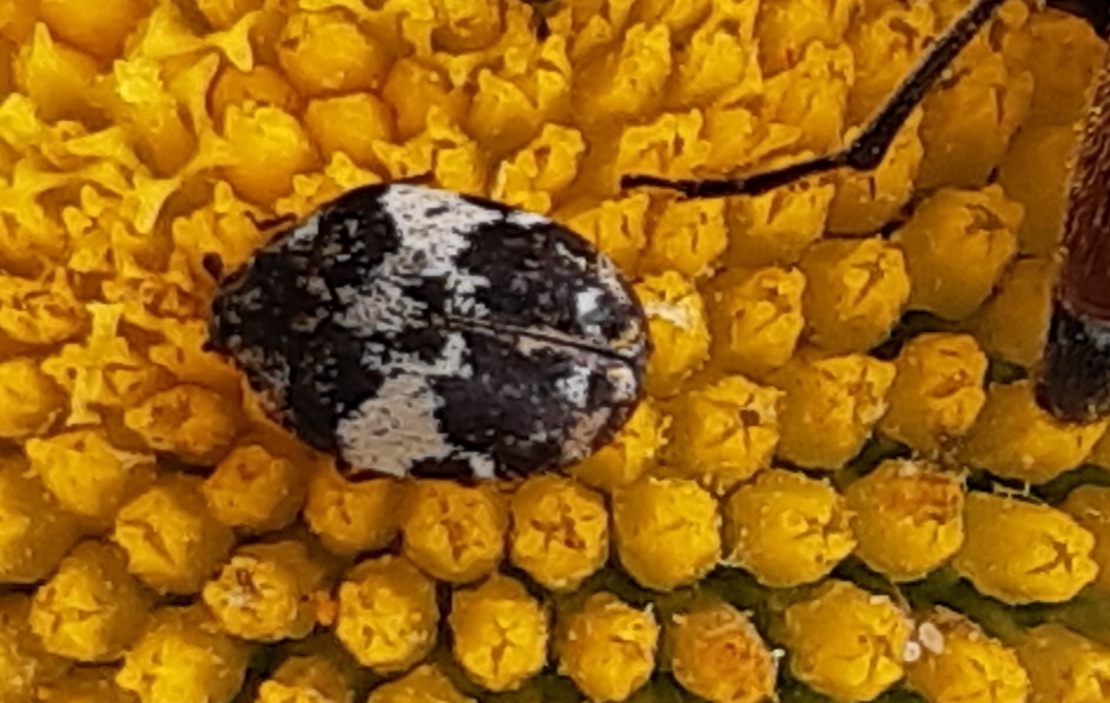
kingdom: Animalia
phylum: Arthropoda
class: Insecta
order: Coleoptera
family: Dermestidae
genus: Anthrenus
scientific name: Anthrenus pimpinellae
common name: Dermestid beetle
